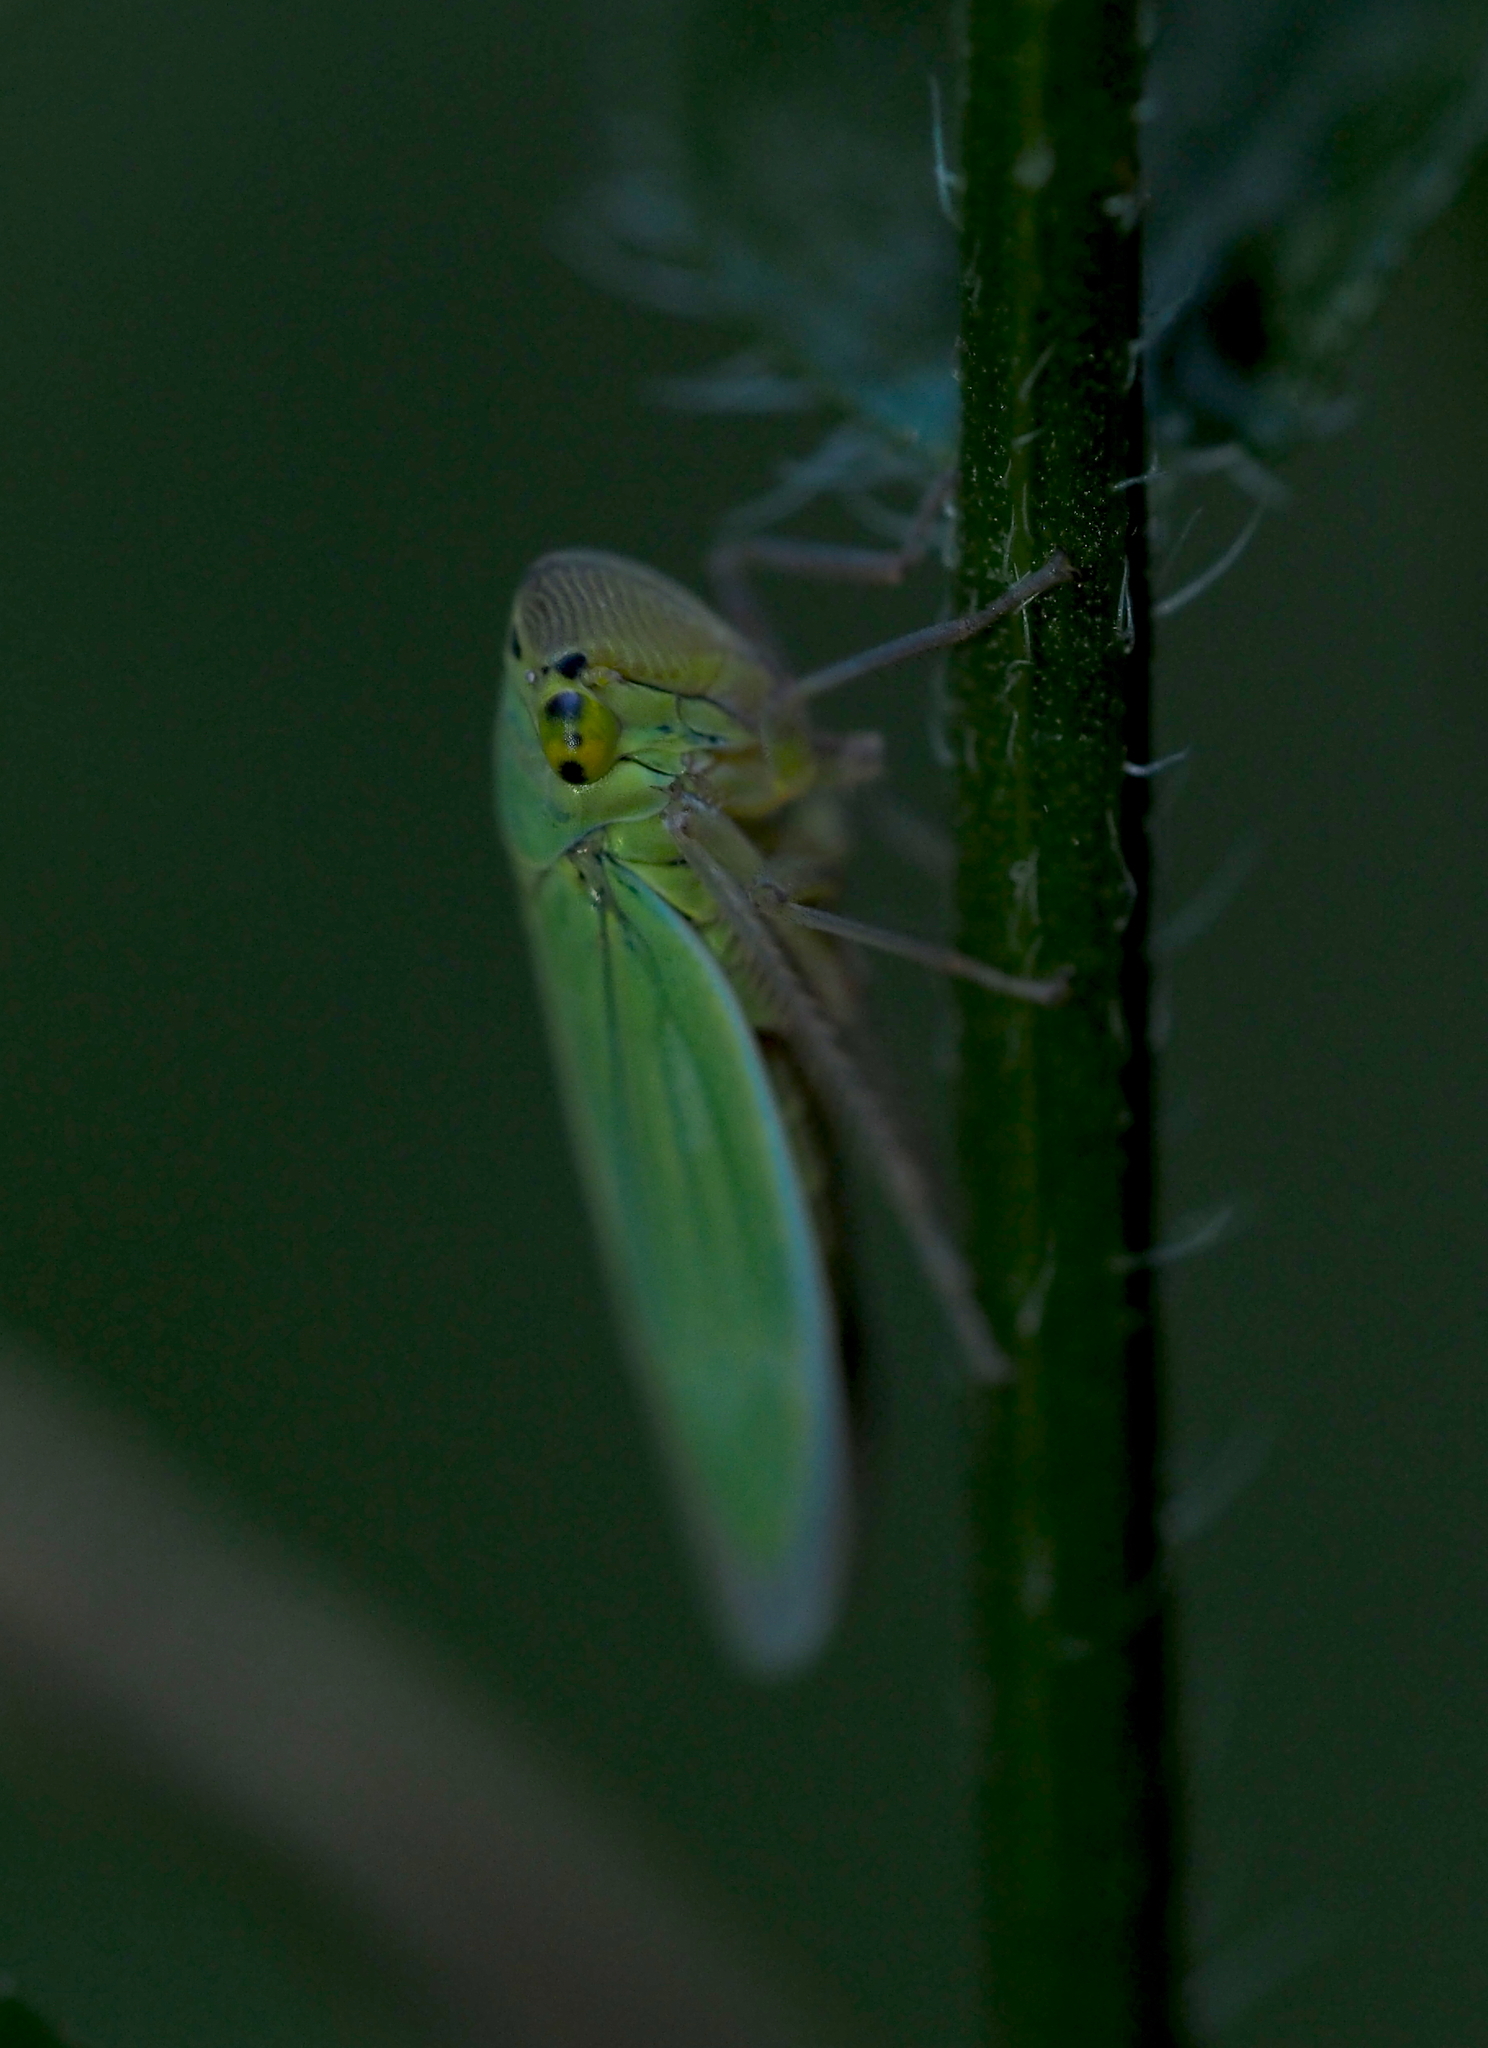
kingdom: Animalia
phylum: Arthropoda
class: Insecta
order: Hemiptera
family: Cicadellidae
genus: Cicadella
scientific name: Cicadella viridis
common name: Leafhopper
